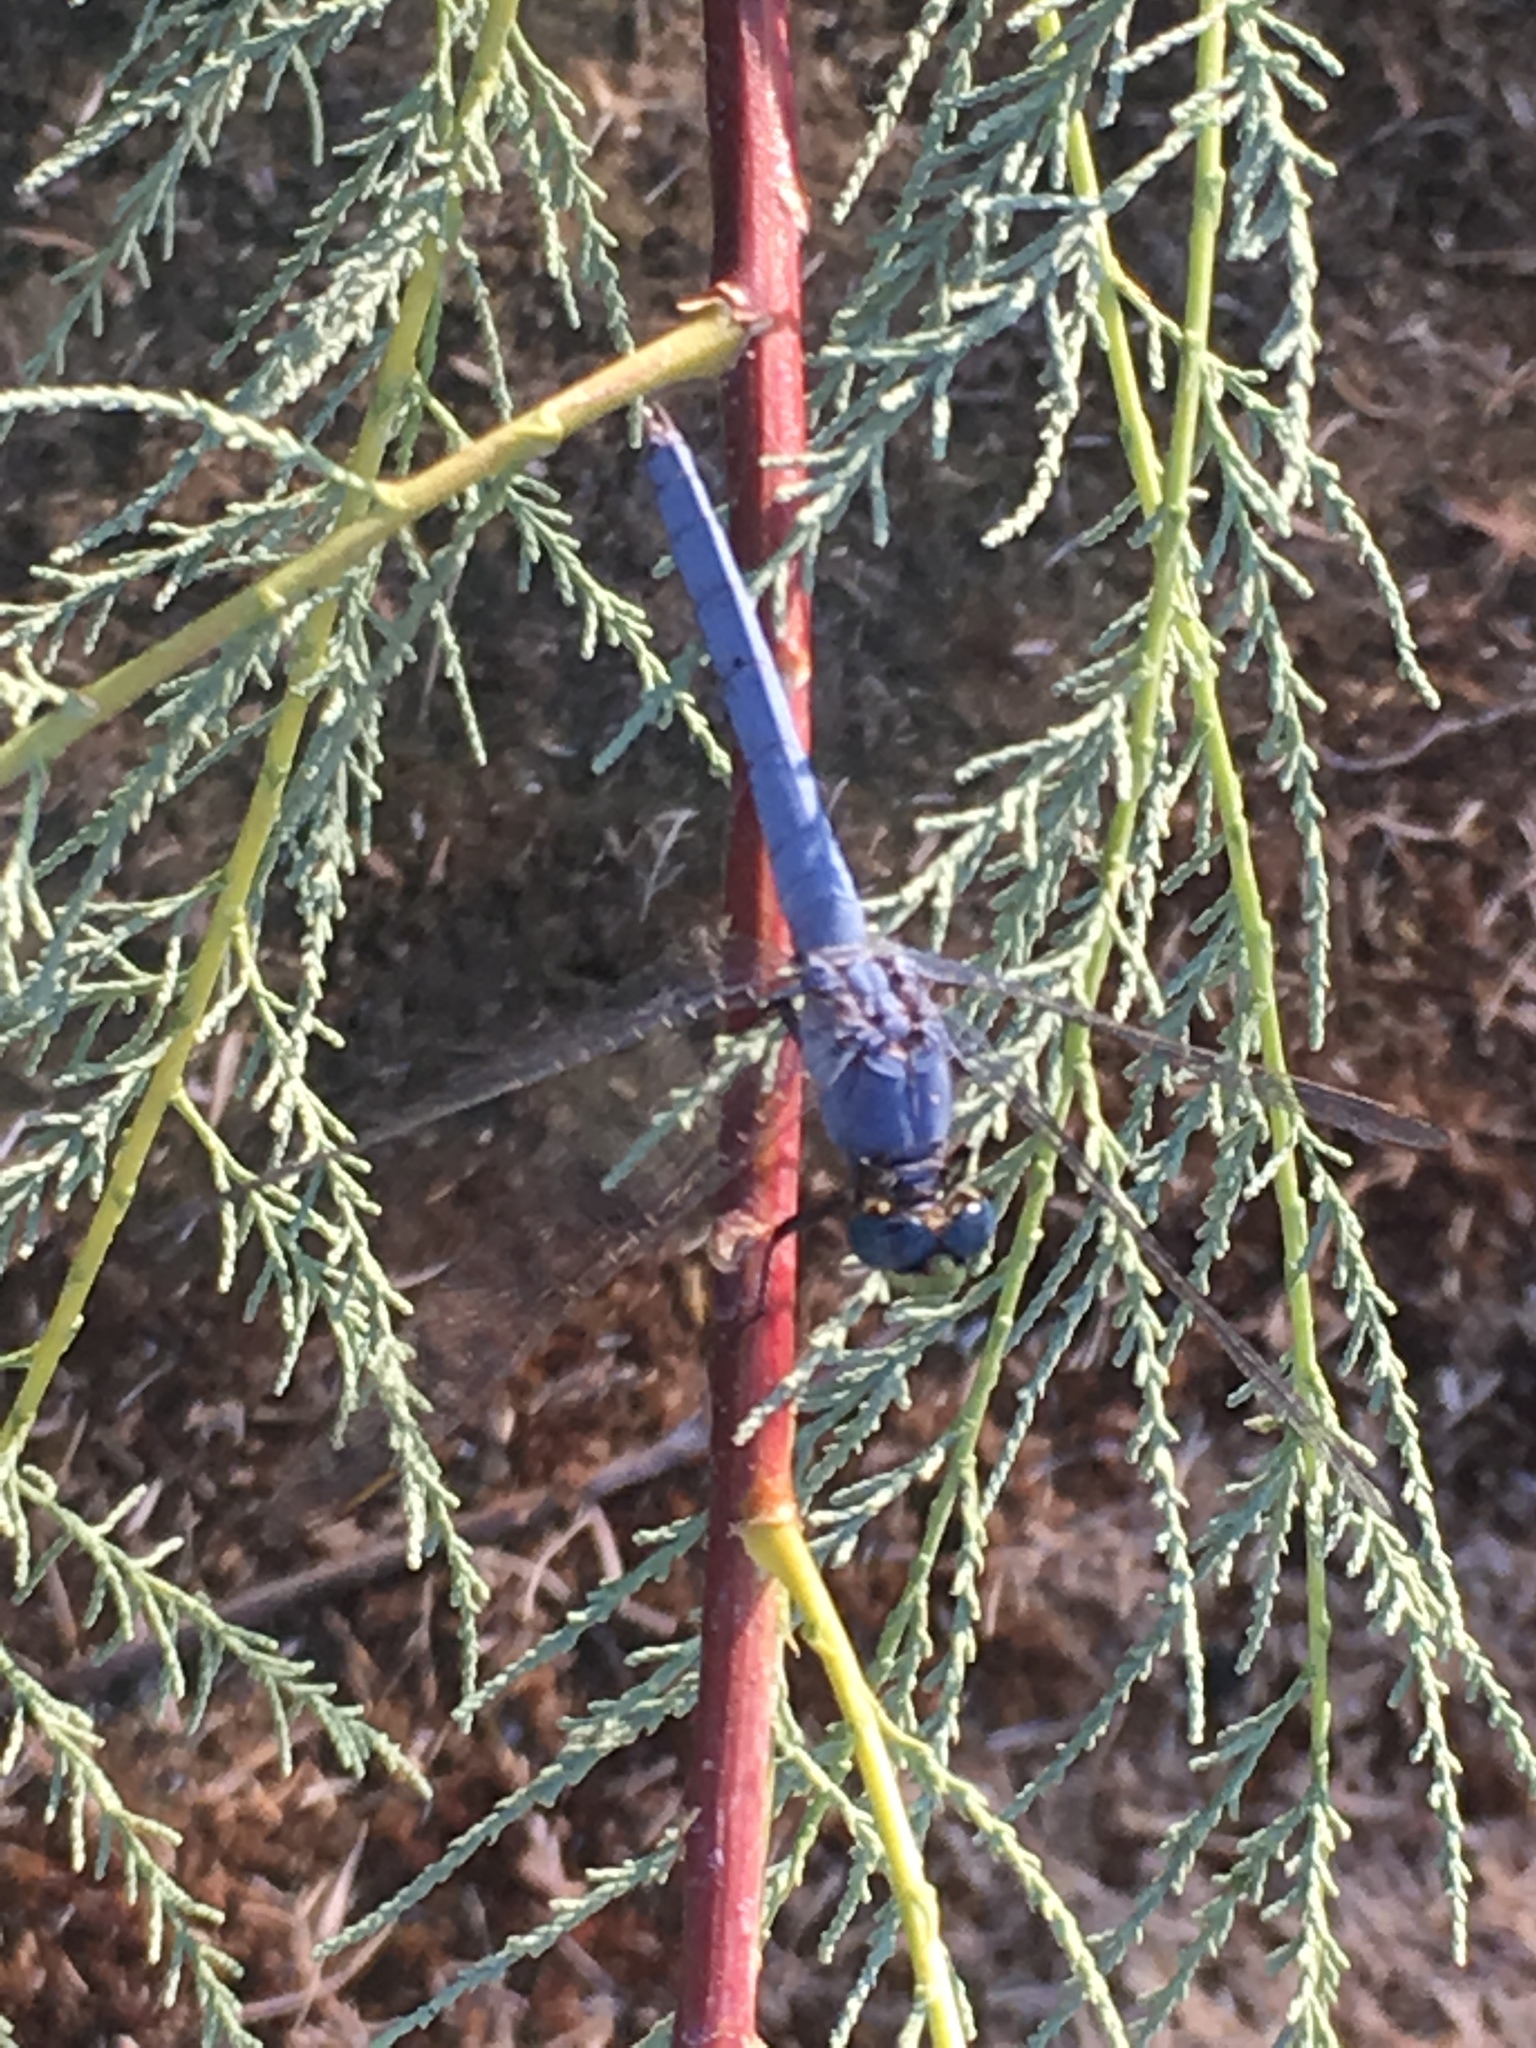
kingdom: Animalia
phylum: Arthropoda
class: Insecta
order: Odonata
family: Libellulidae
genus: Erythemis
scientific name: Erythemis collocata
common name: Western pondhawk
